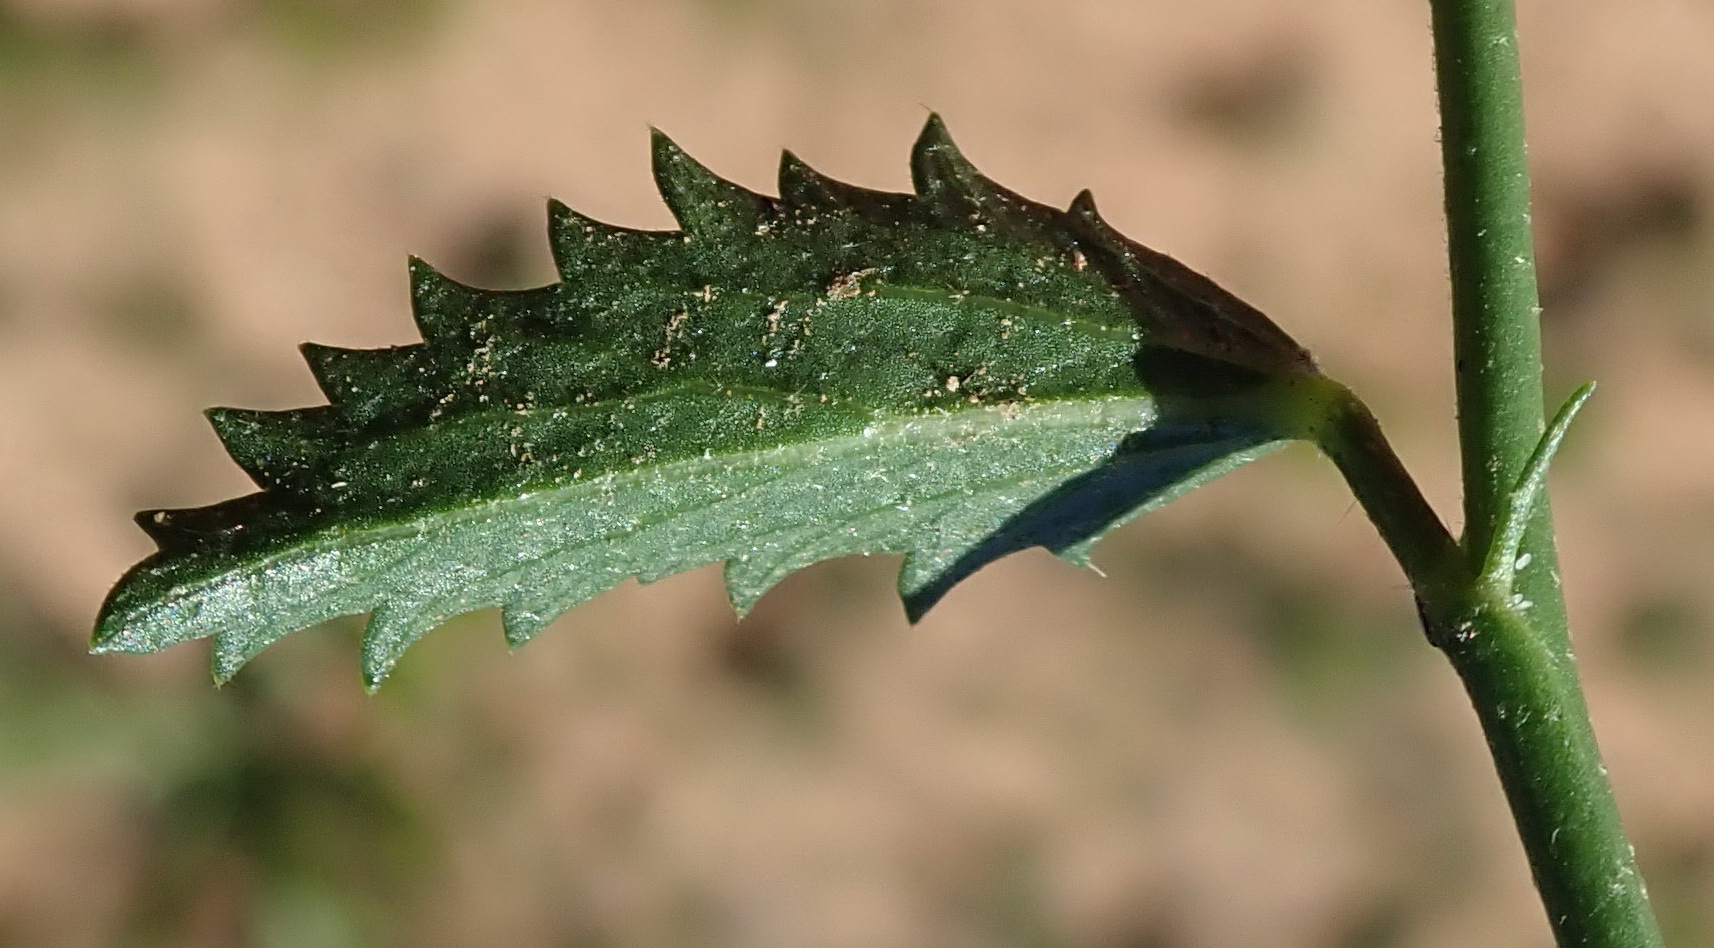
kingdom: Plantae
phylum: Tracheophyta
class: Magnoliopsida
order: Malvales
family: Malvaceae
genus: Hibiscus
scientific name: Hibiscus pusillus
